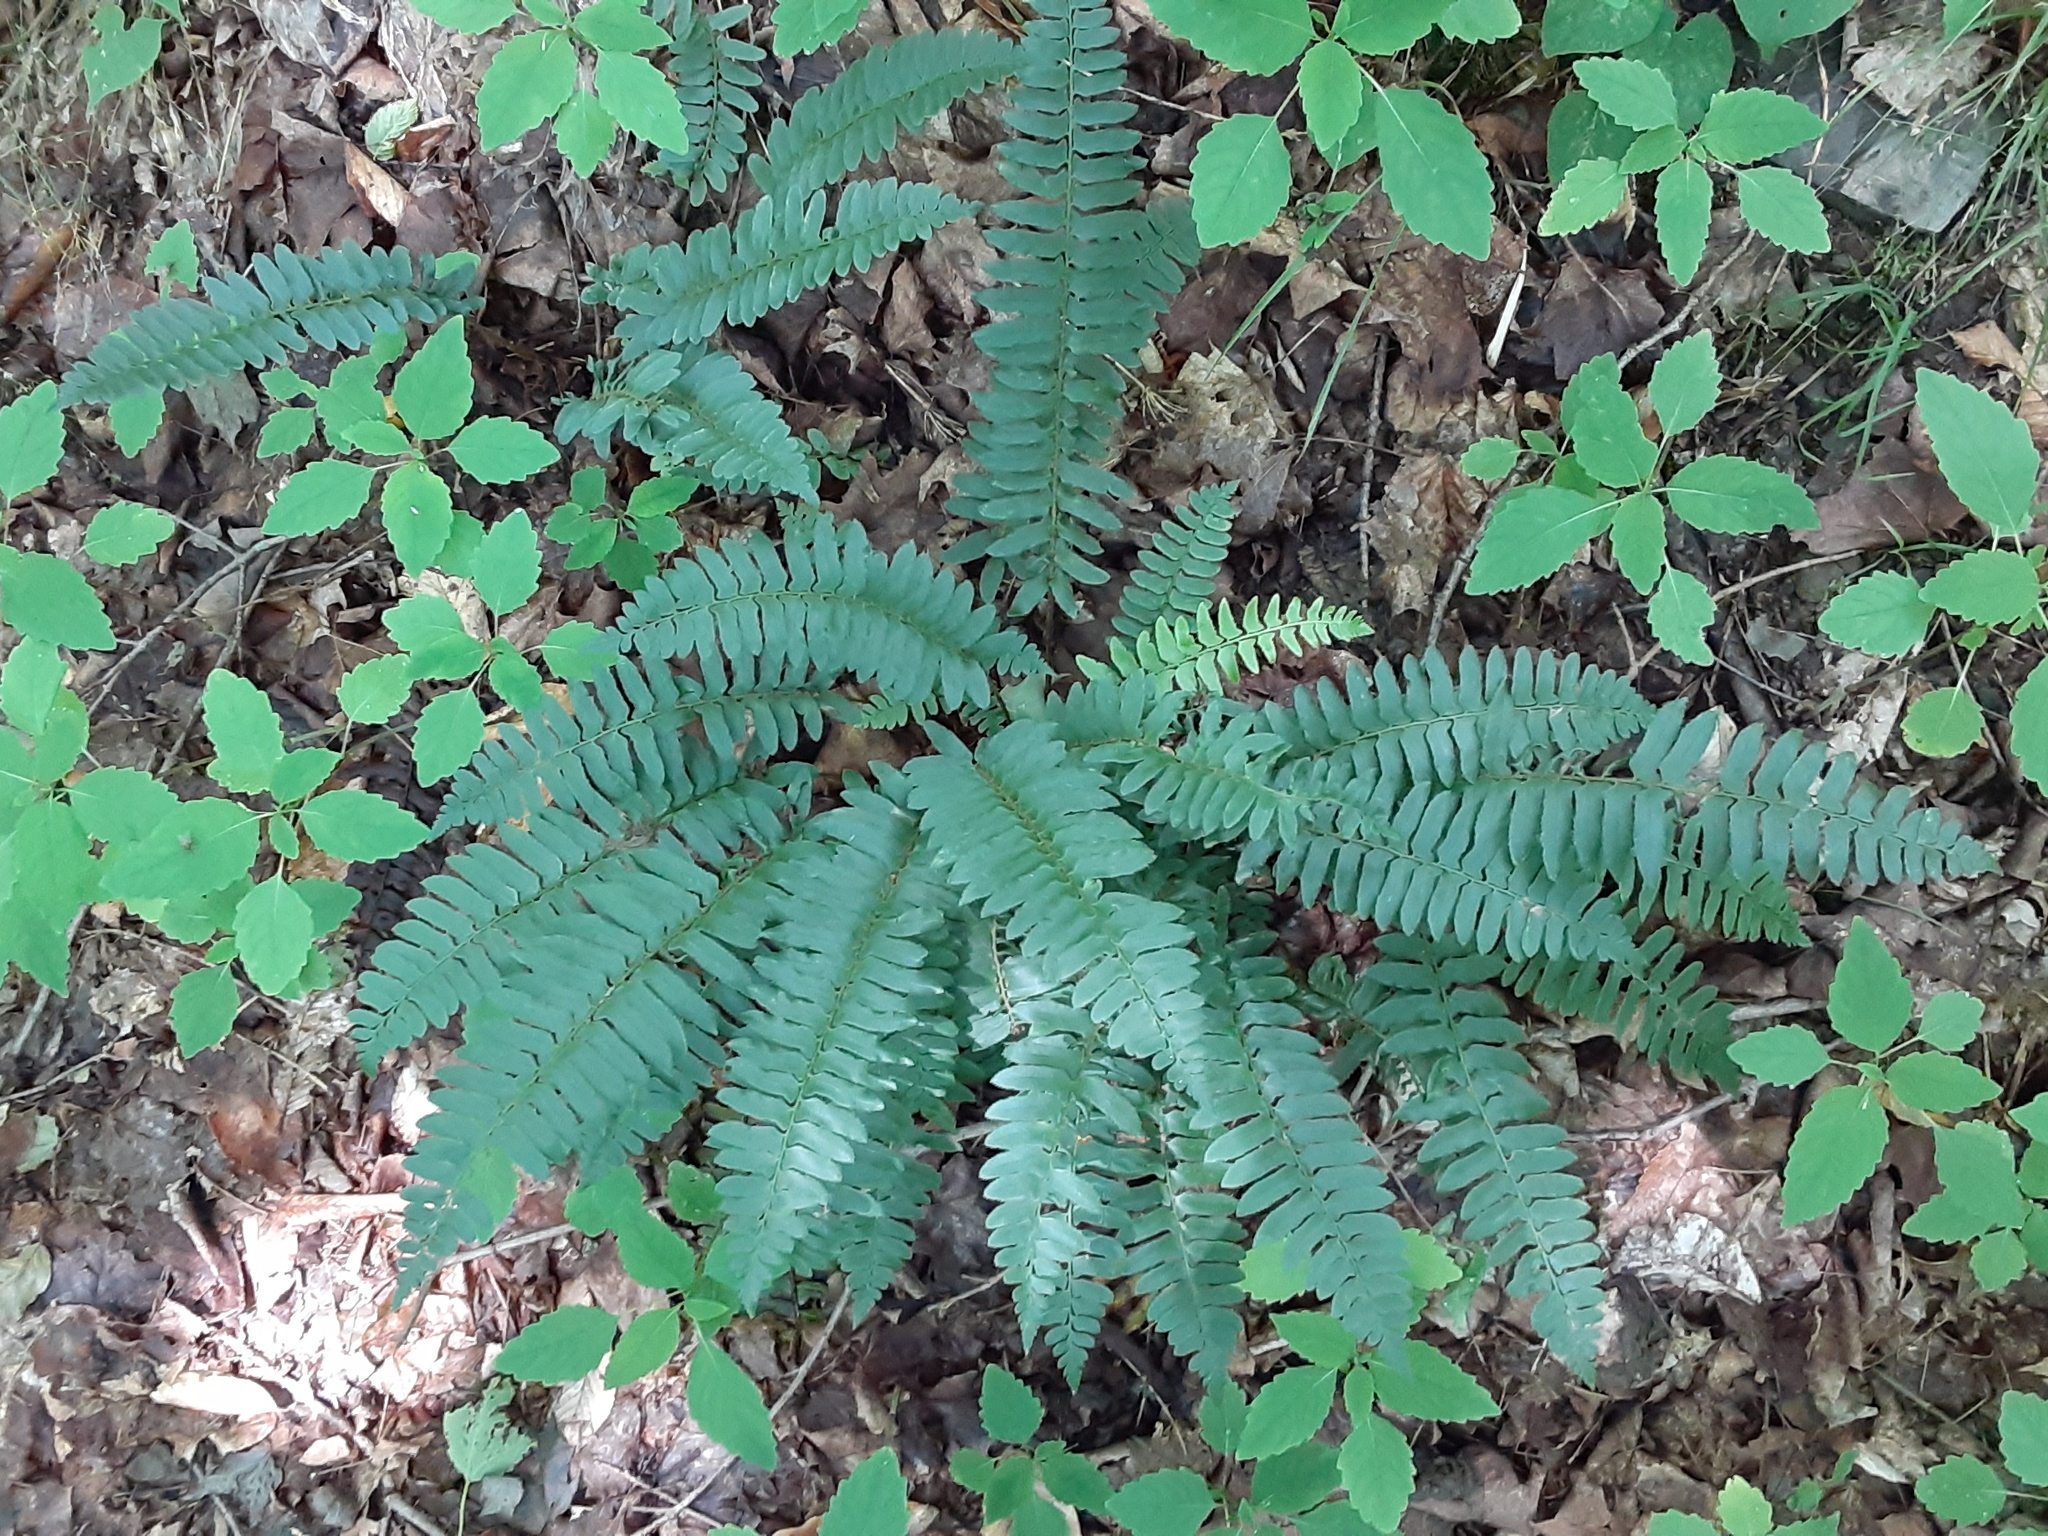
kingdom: Plantae
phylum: Tracheophyta
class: Polypodiopsida
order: Polypodiales
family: Dryopteridaceae
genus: Polystichum
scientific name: Polystichum acrostichoides
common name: Christmas fern
